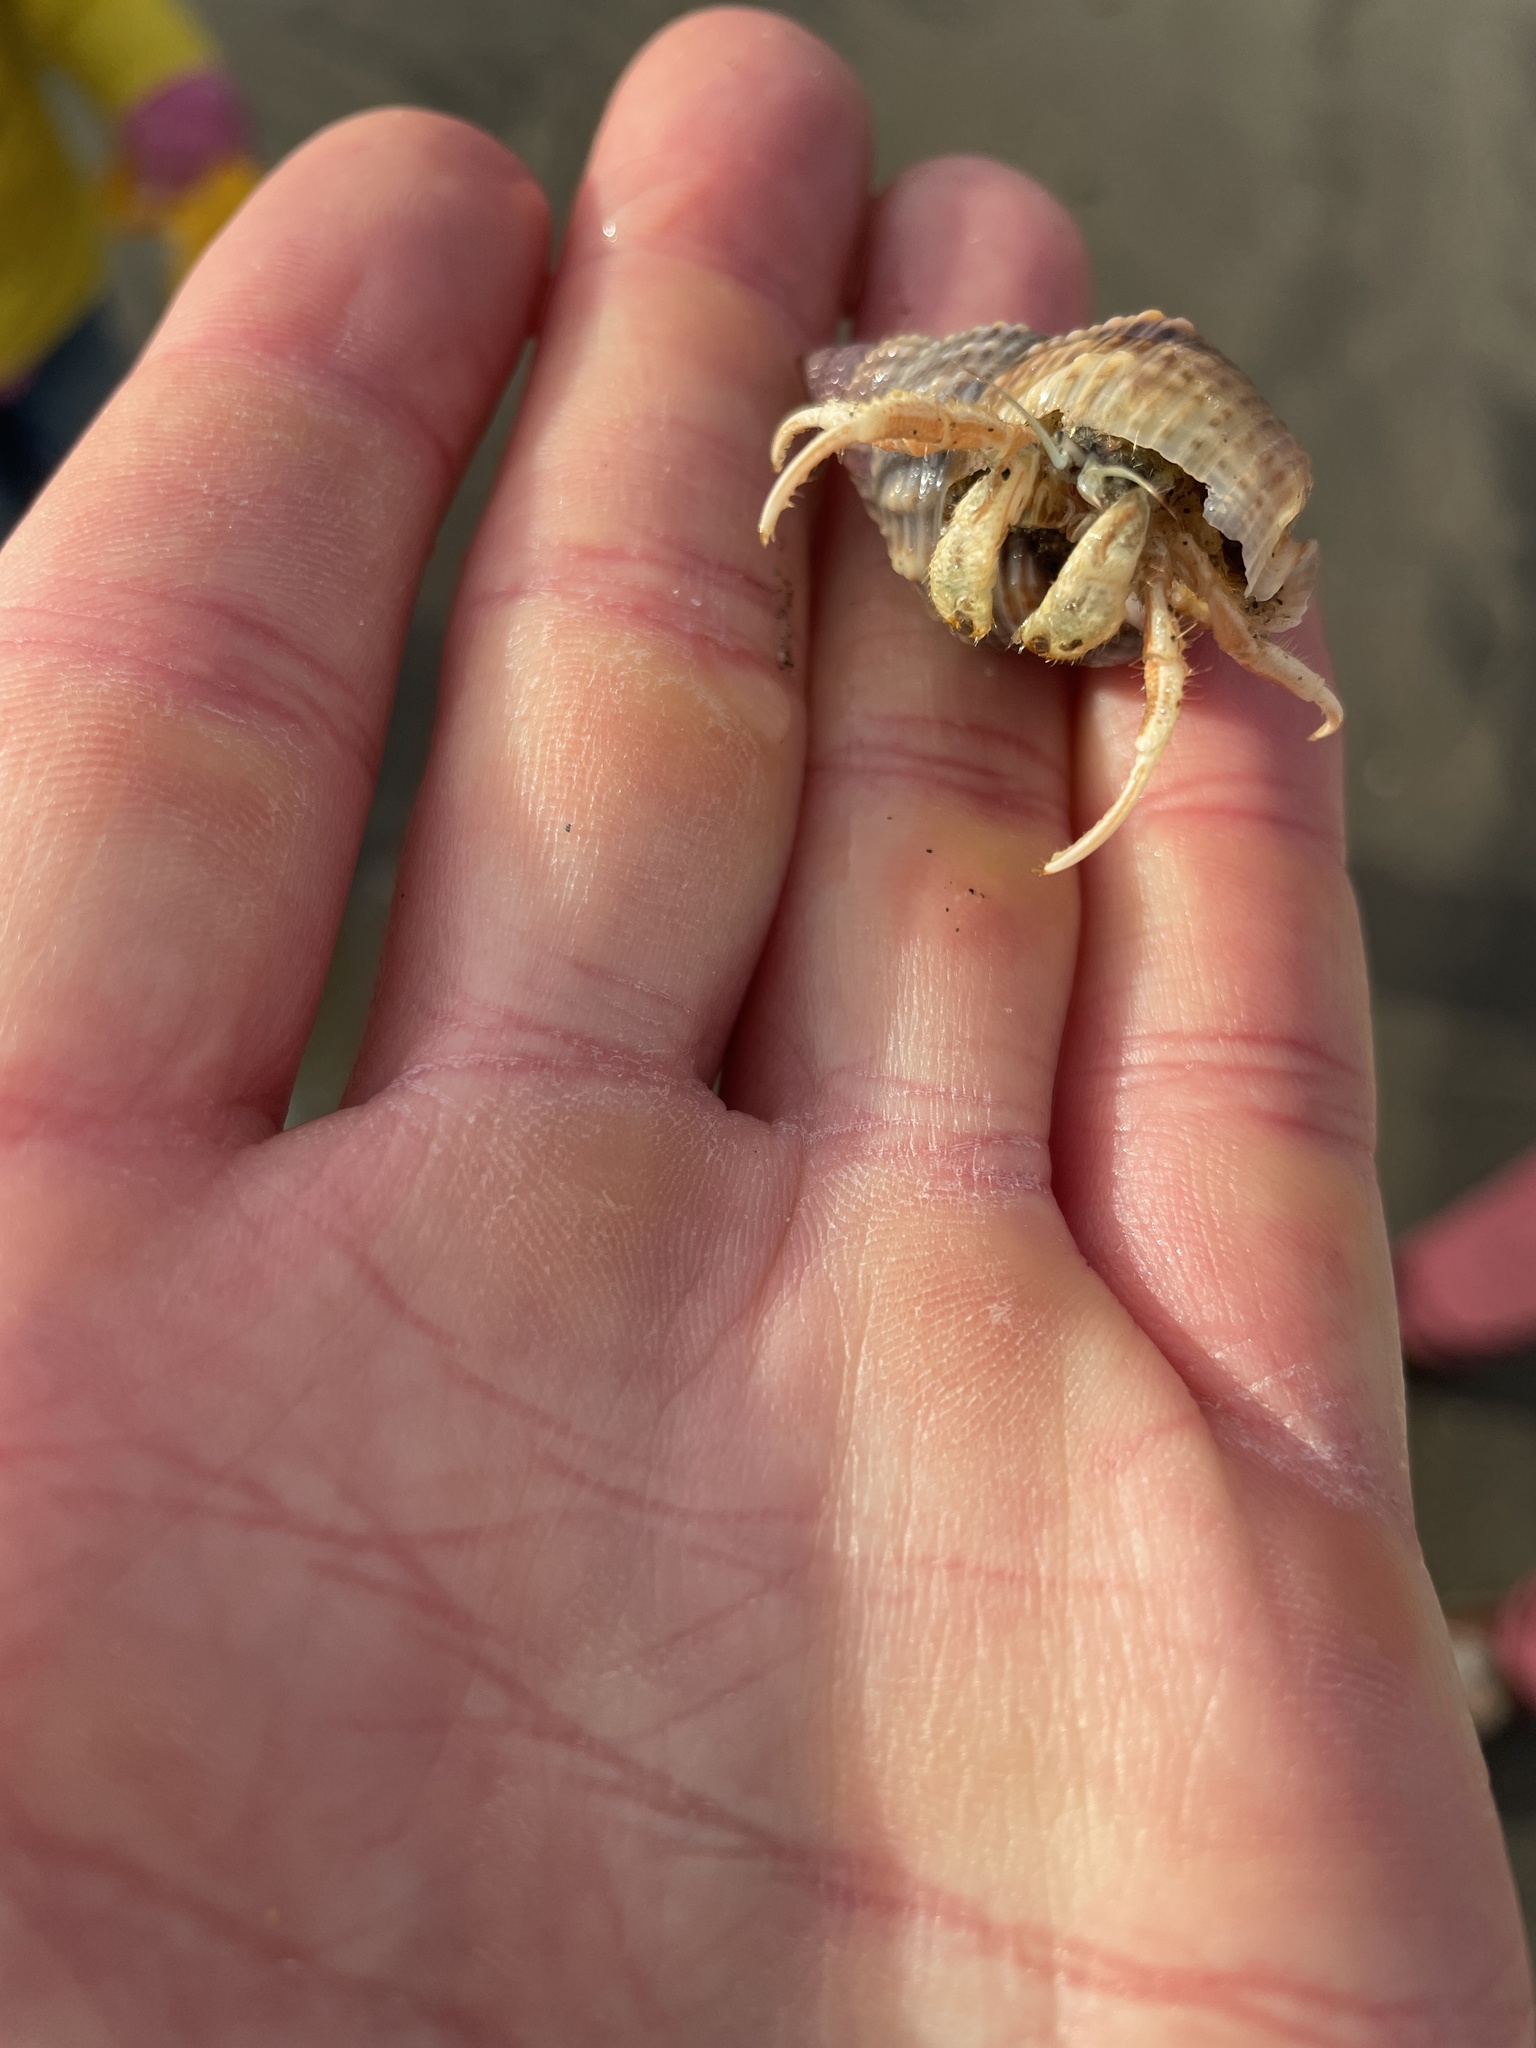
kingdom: Animalia
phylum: Arthropoda
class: Malacostraca
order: Decapoda
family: Diogenidae
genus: Isocheles
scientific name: Isocheles pilosus
